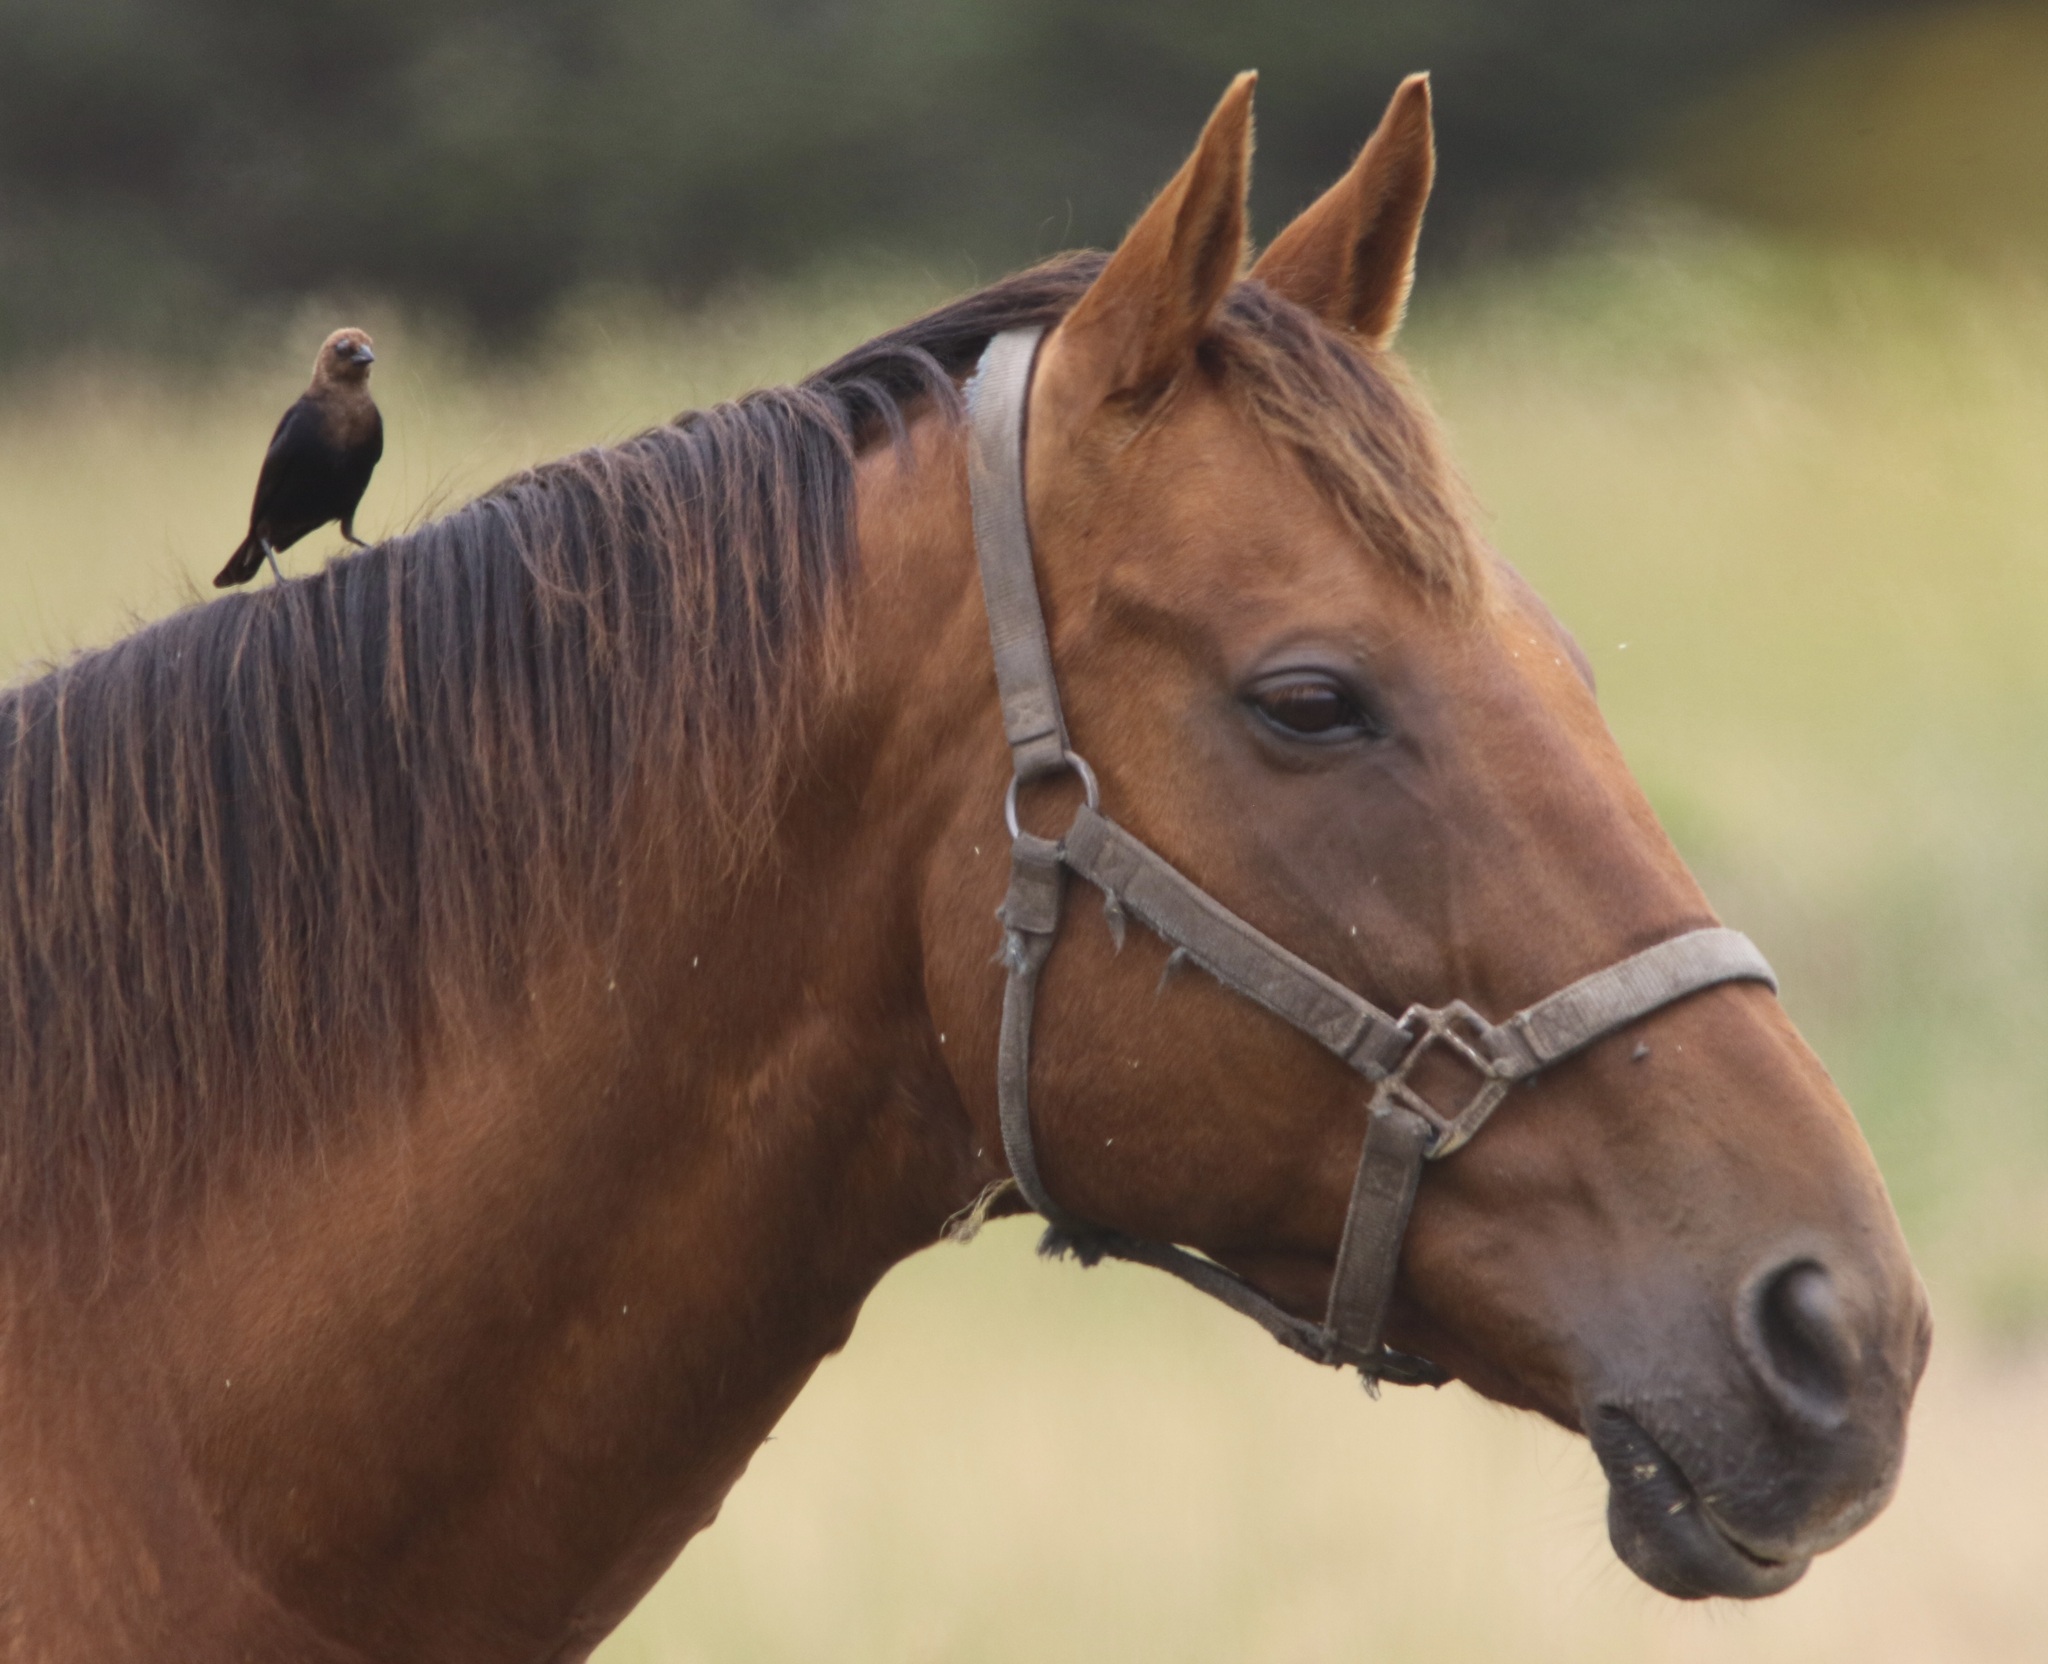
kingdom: Animalia
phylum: Chordata
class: Aves
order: Passeriformes
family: Icteridae
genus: Molothrus
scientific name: Molothrus ater
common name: Brown-headed cowbird
